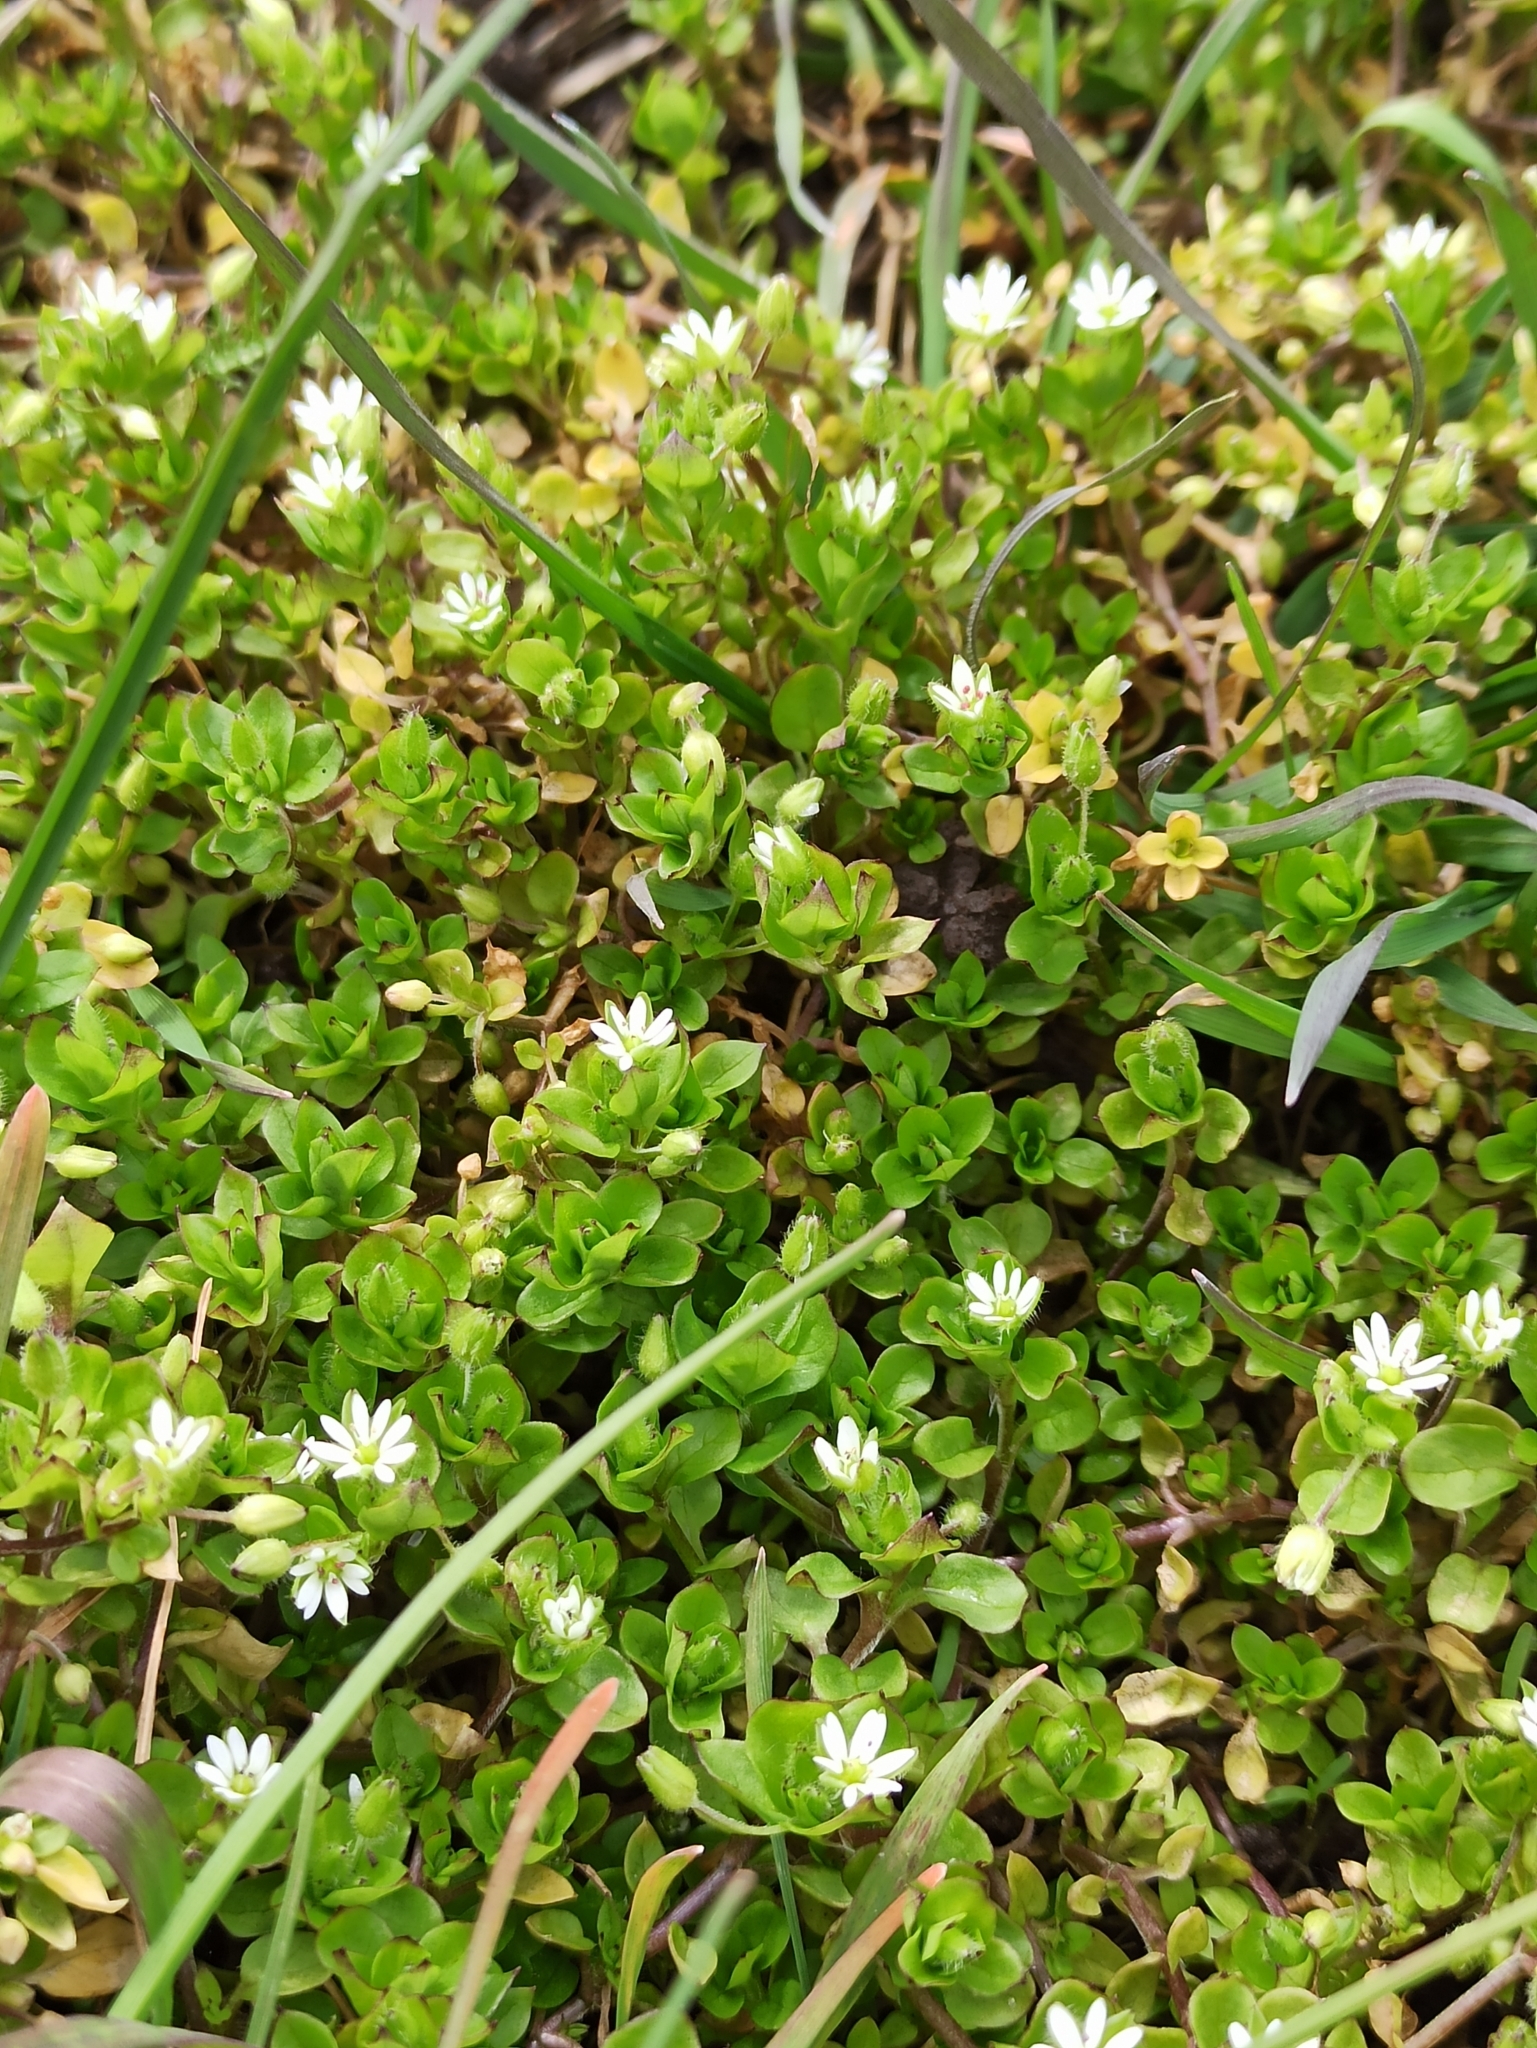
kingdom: Plantae
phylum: Tracheophyta
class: Magnoliopsida
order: Caryophyllales
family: Caryophyllaceae
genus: Stellaria
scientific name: Stellaria media
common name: Common chickweed
